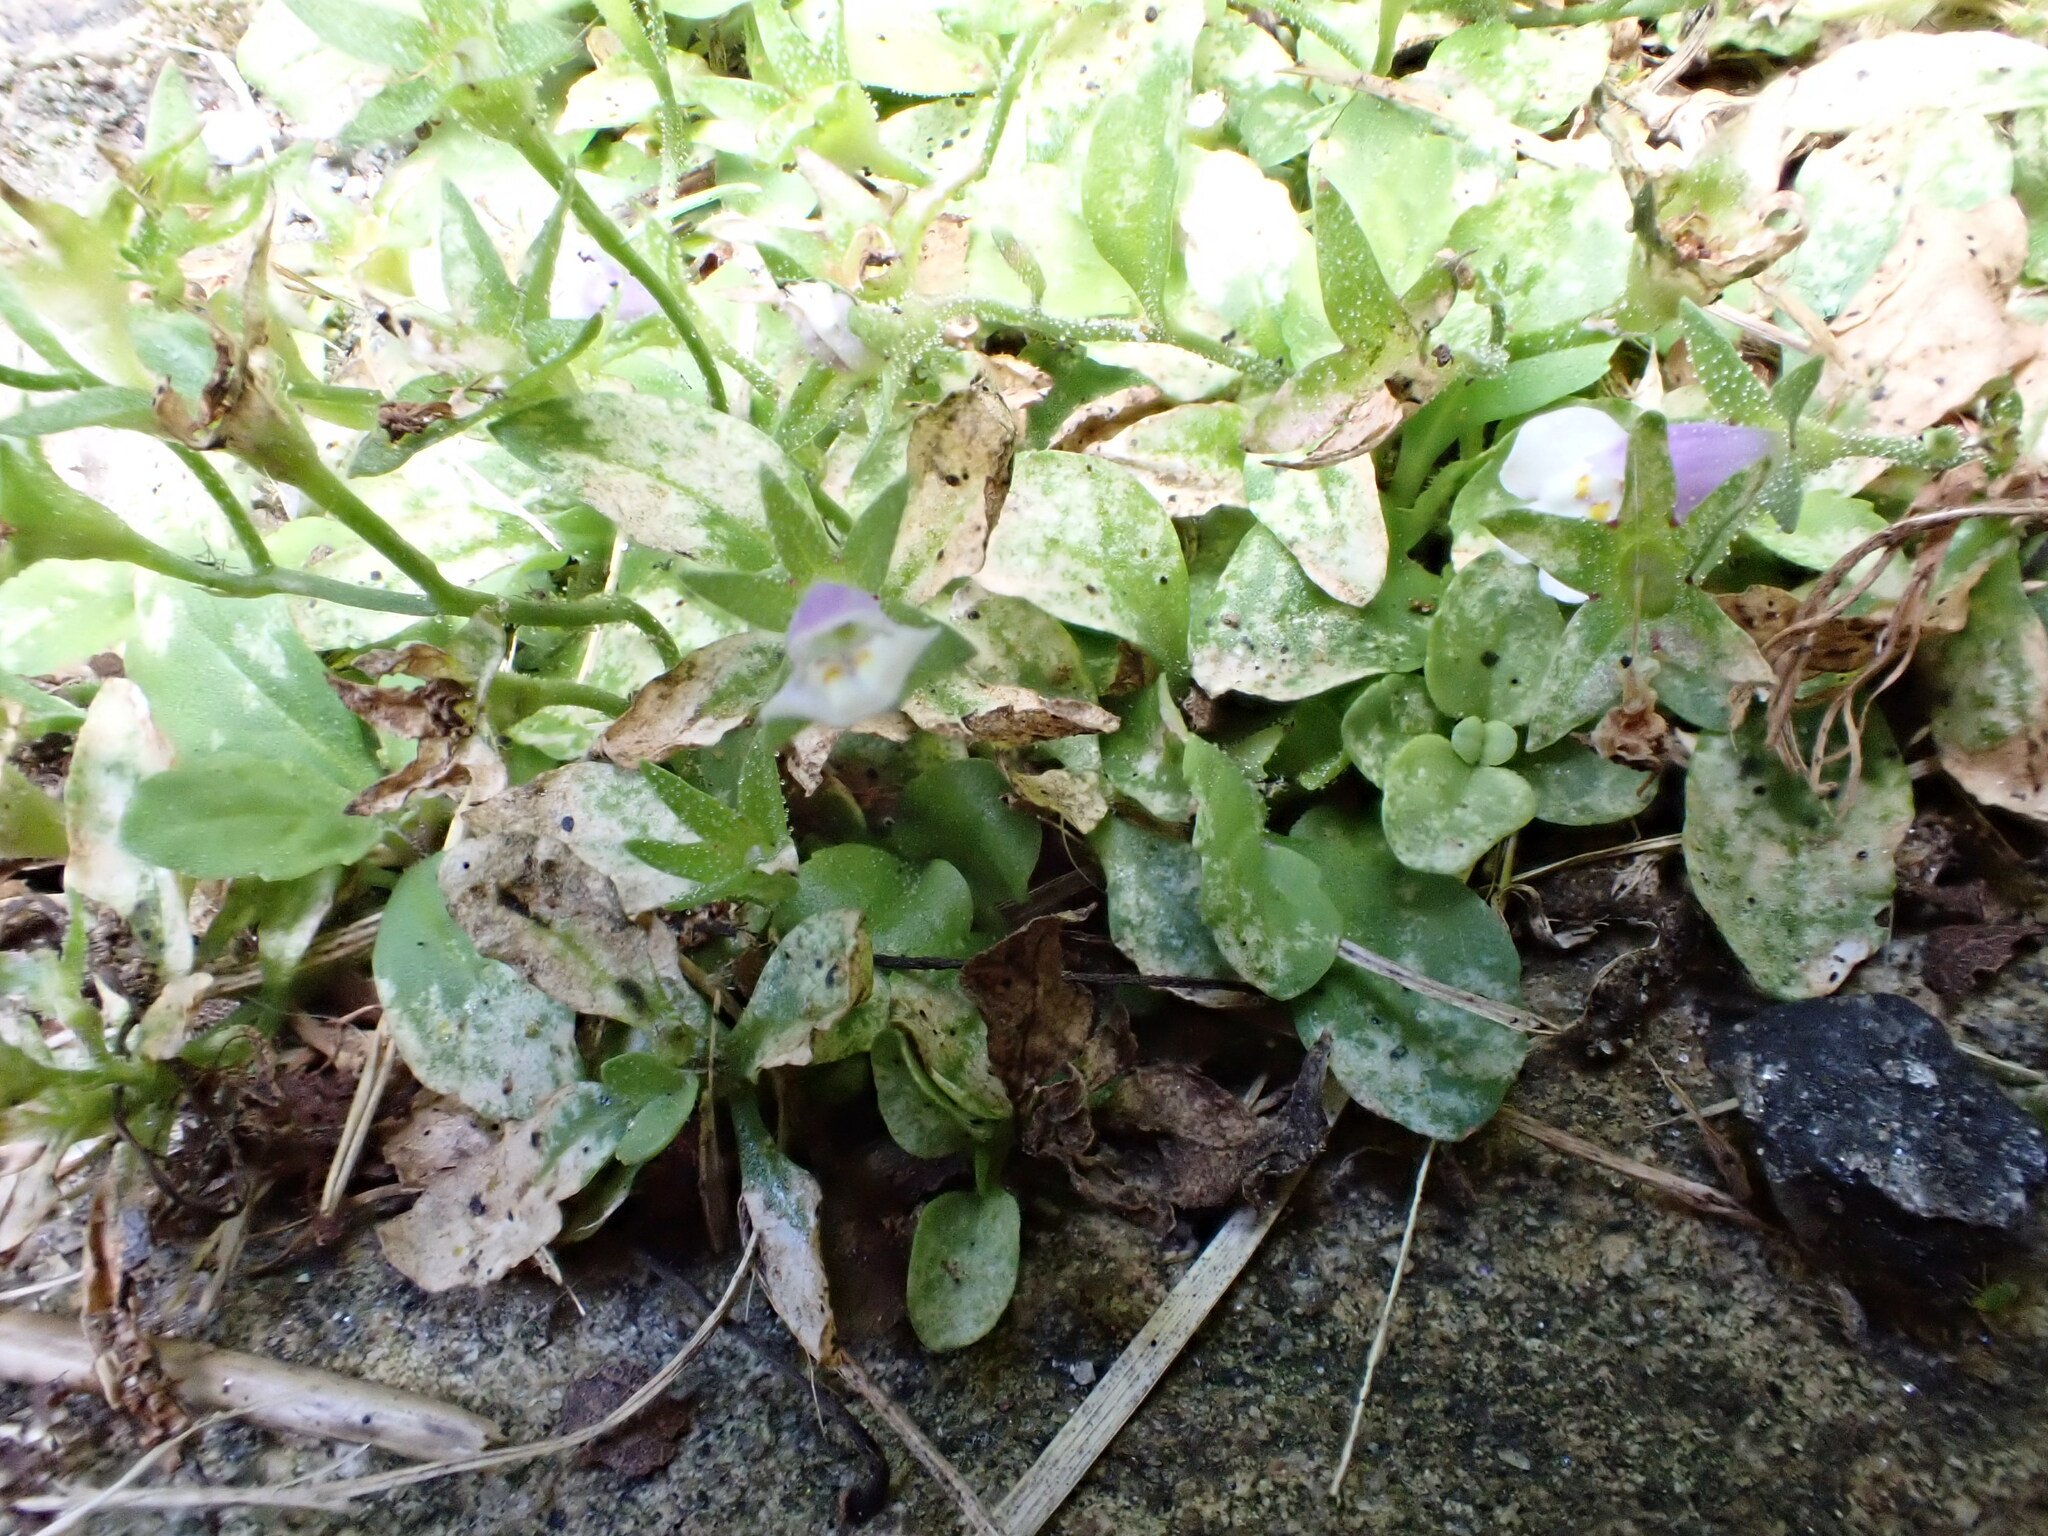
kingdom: Plantae
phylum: Tracheophyta
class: Magnoliopsida
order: Lamiales
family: Mazaceae
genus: Mazus
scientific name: Mazus pumilus
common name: Japanese mazus
